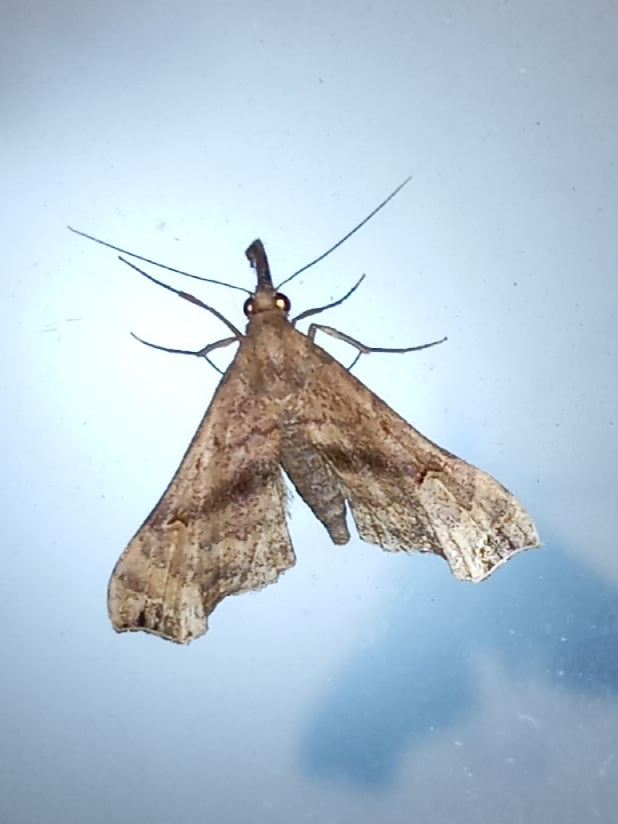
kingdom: Animalia
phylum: Arthropoda
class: Insecta
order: Lepidoptera
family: Erebidae
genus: Palthis
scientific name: Palthis asopialis
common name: Faint-spotted palthis moth
